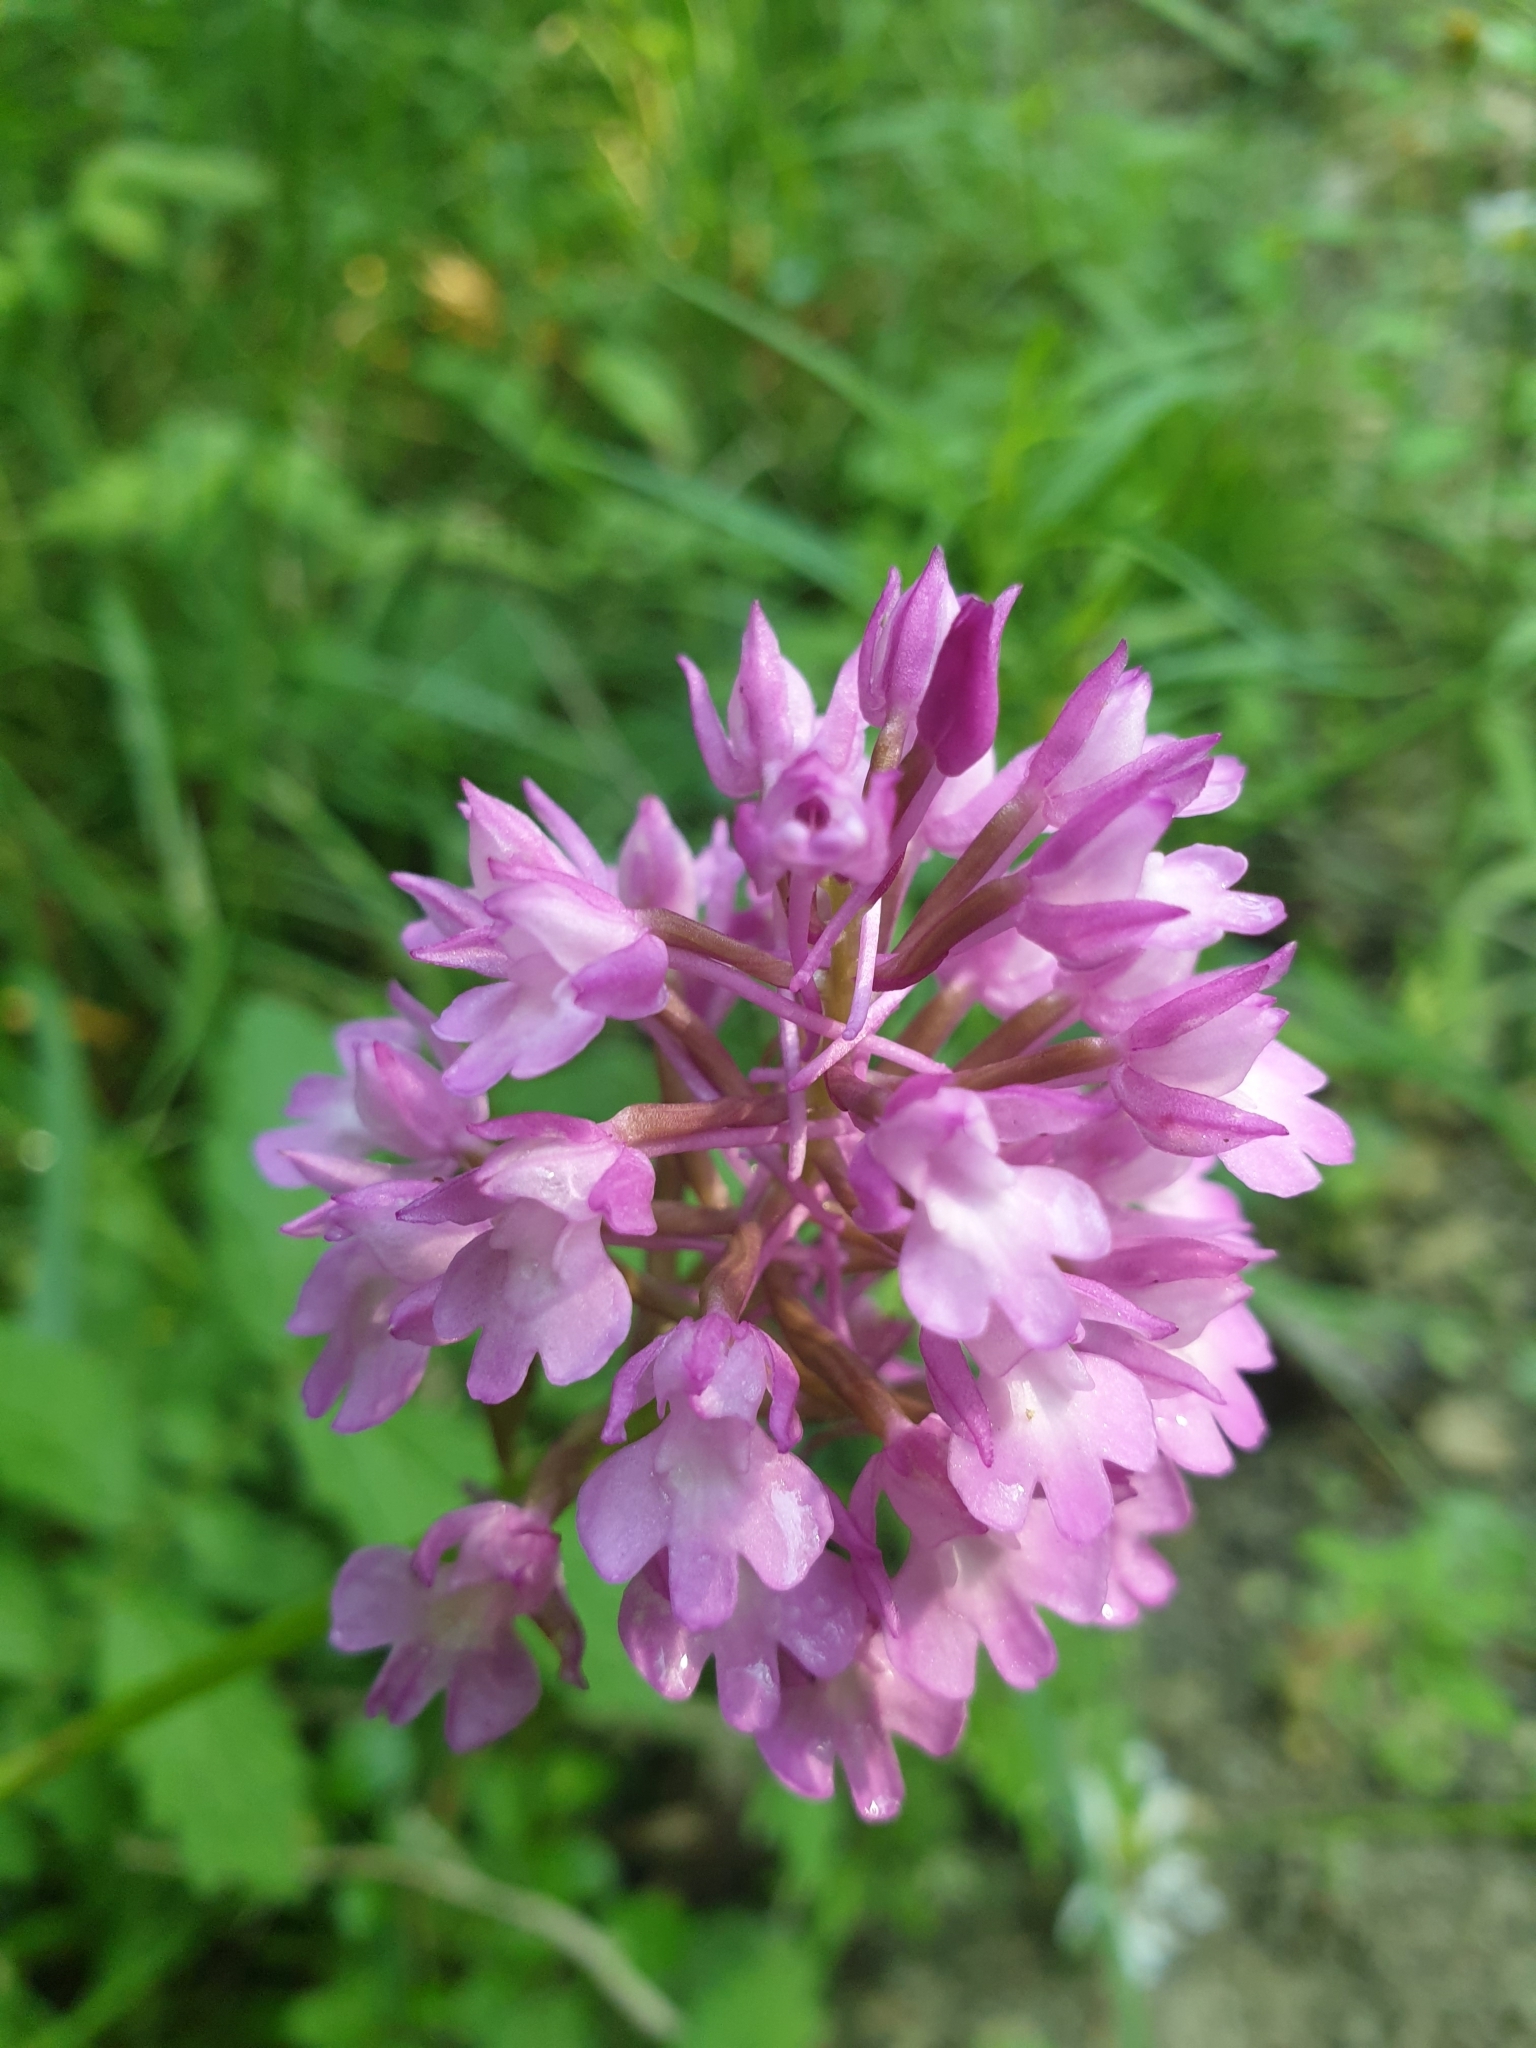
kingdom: Plantae
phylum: Tracheophyta
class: Liliopsida
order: Asparagales
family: Orchidaceae
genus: Anacamptis
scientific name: Anacamptis pyramidalis
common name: Pyramidal orchid
